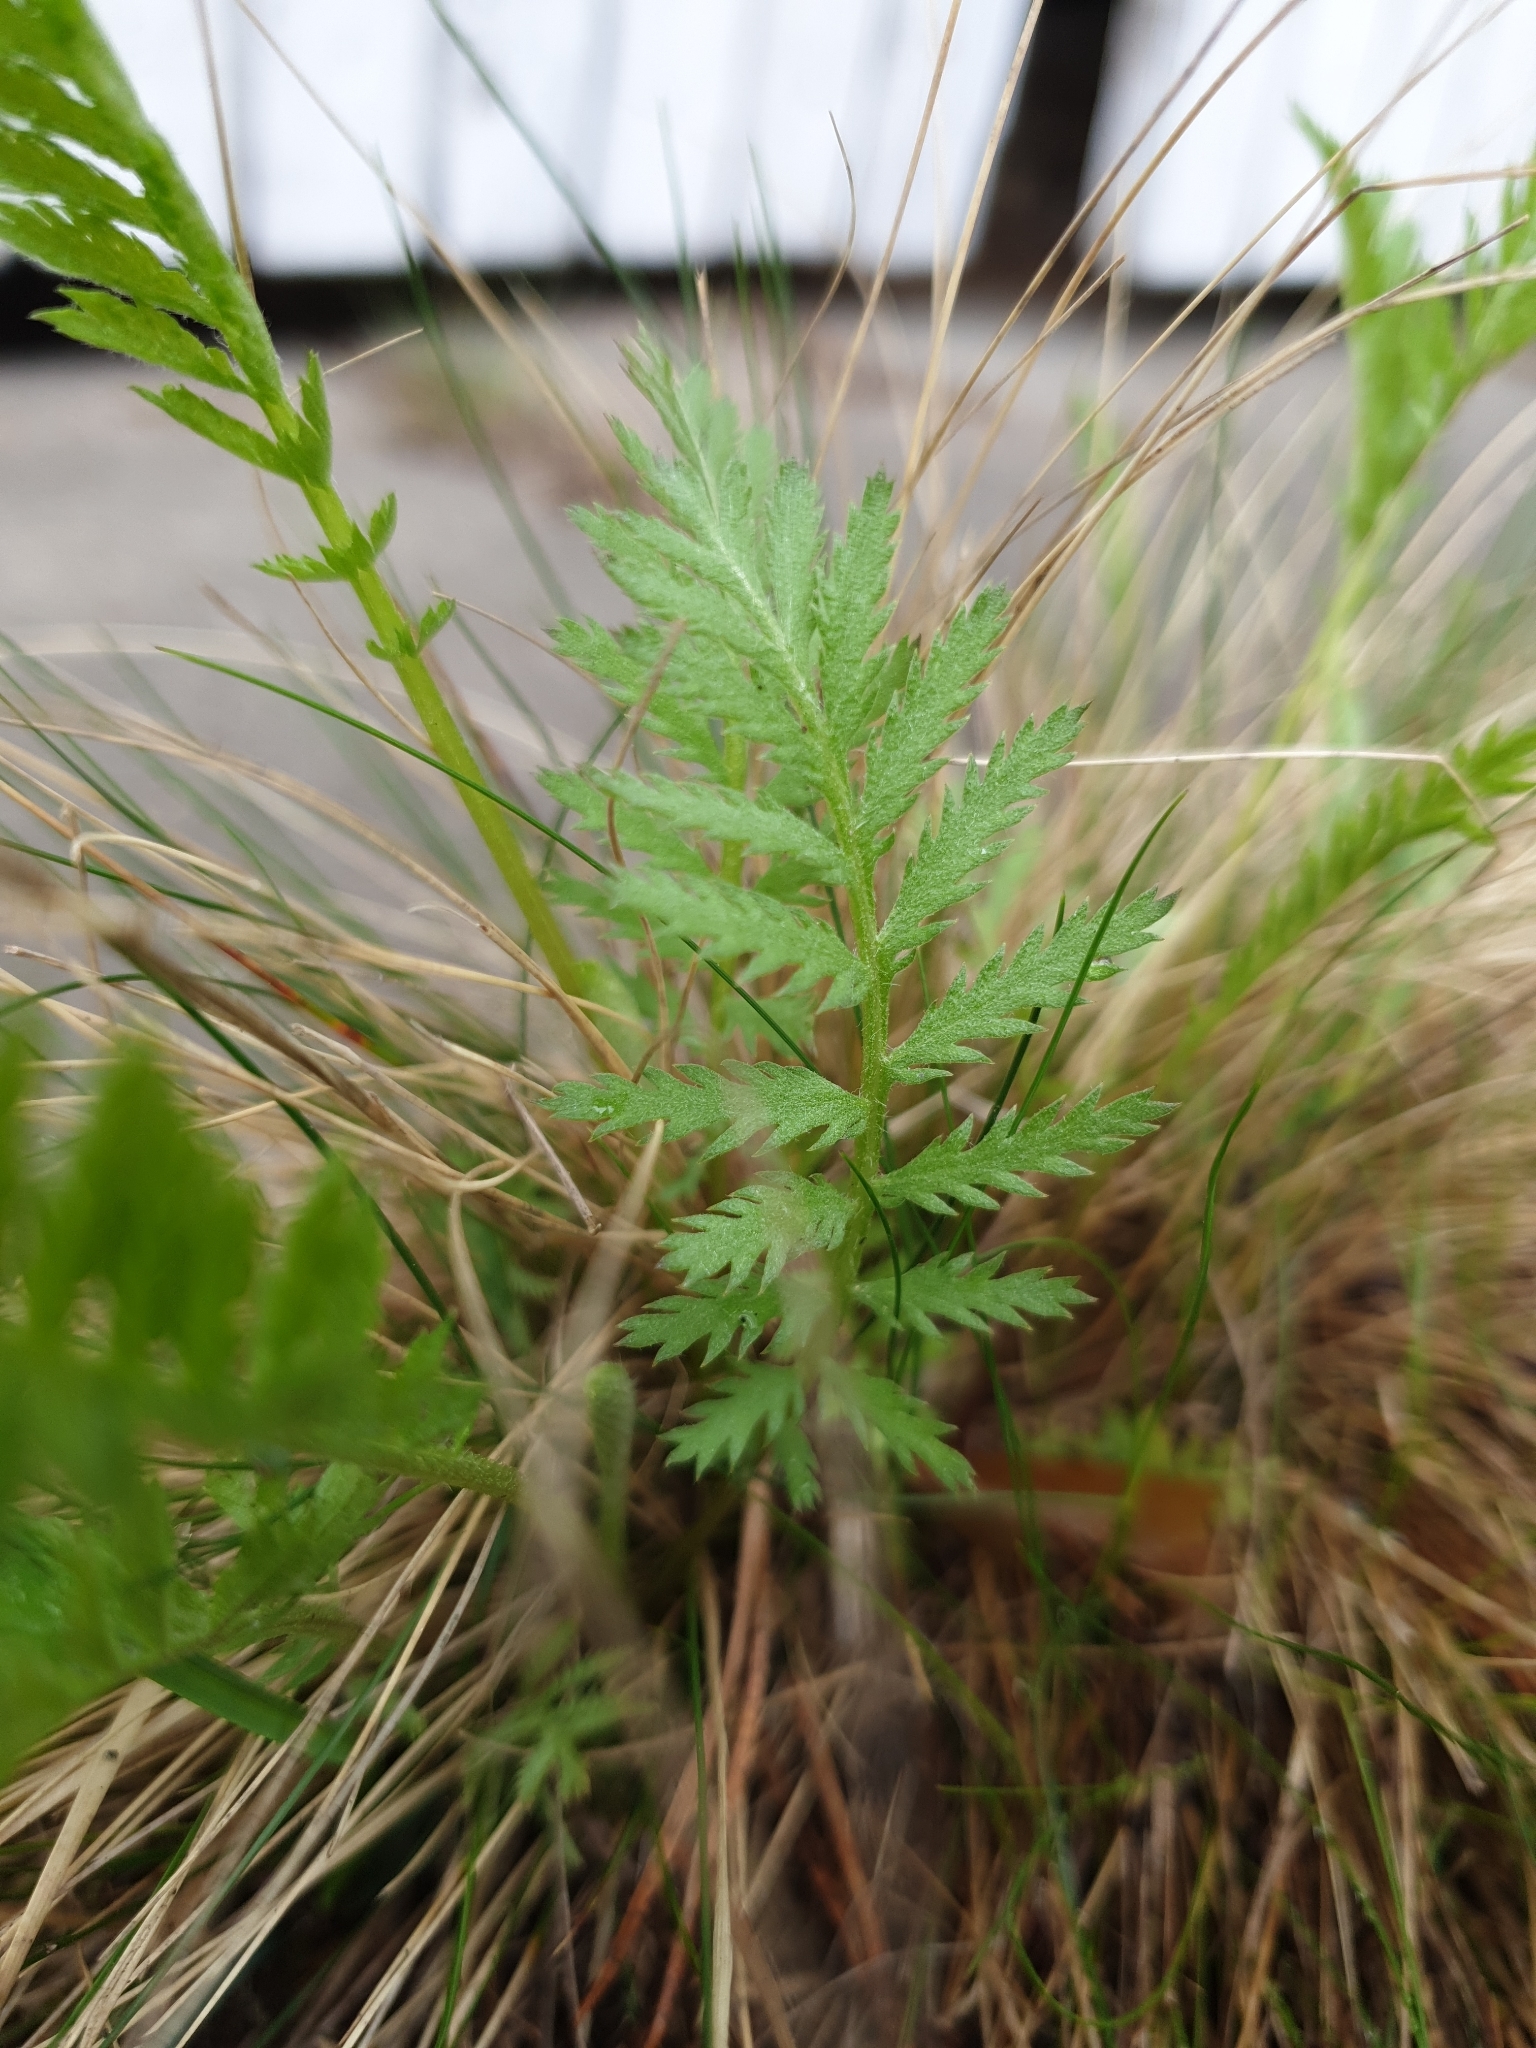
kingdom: Plantae
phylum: Tracheophyta
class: Magnoliopsida
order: Asterales
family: Asteraceae
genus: Tanacetum
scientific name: Tanacetum vulgare
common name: Common tansy
